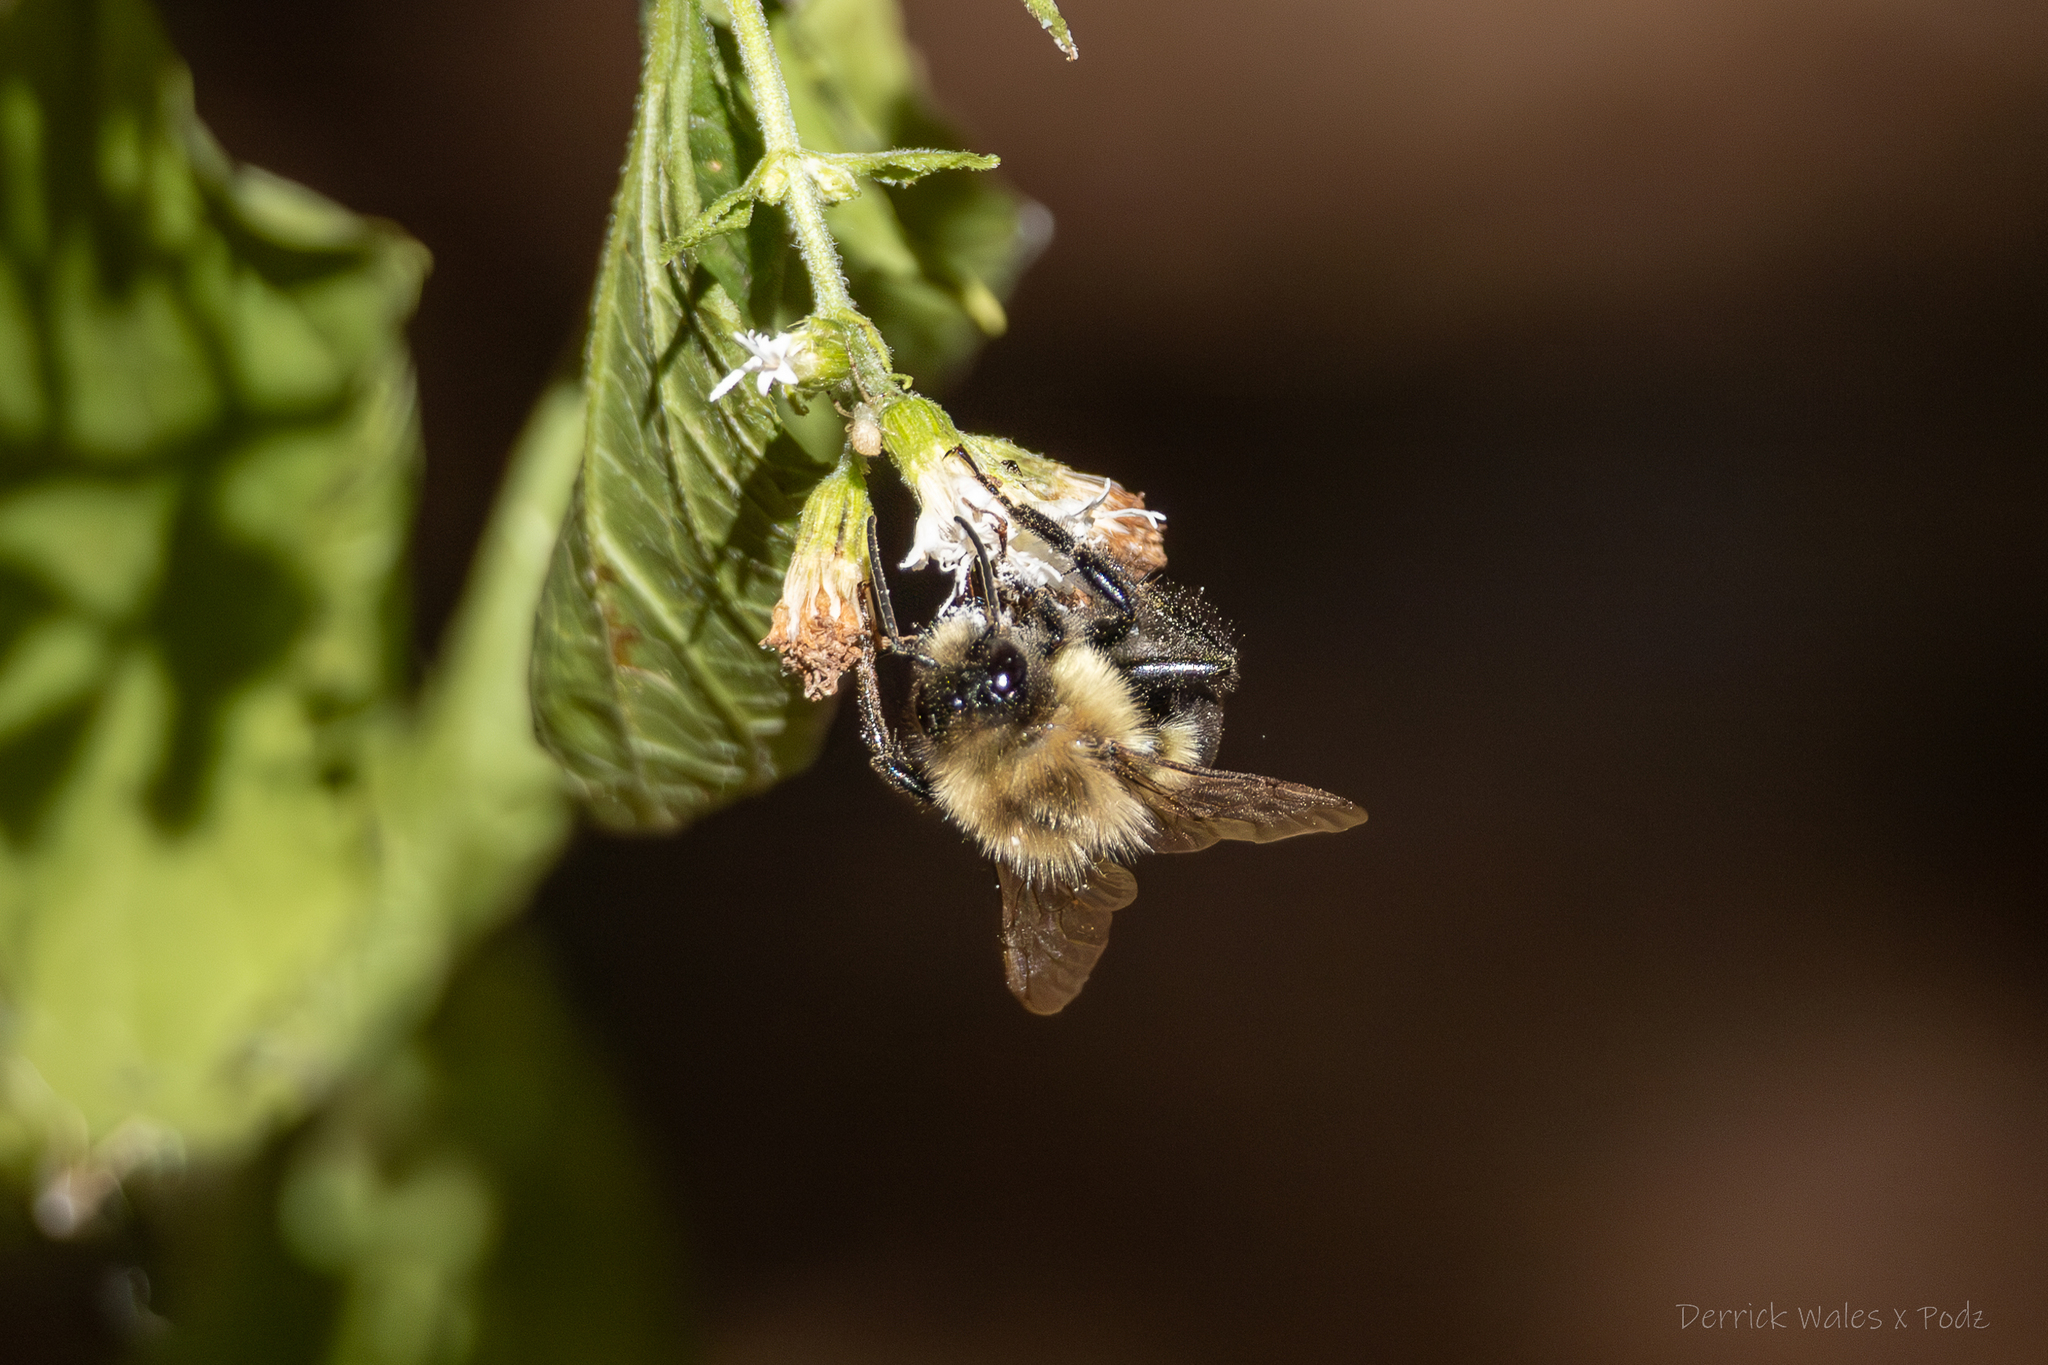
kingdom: Animalia
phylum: Arthropoda
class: Insecta
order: Hymenoptera
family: Apidae
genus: Bombus
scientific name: Bombus impatiens
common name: Common eastern bumble bee
